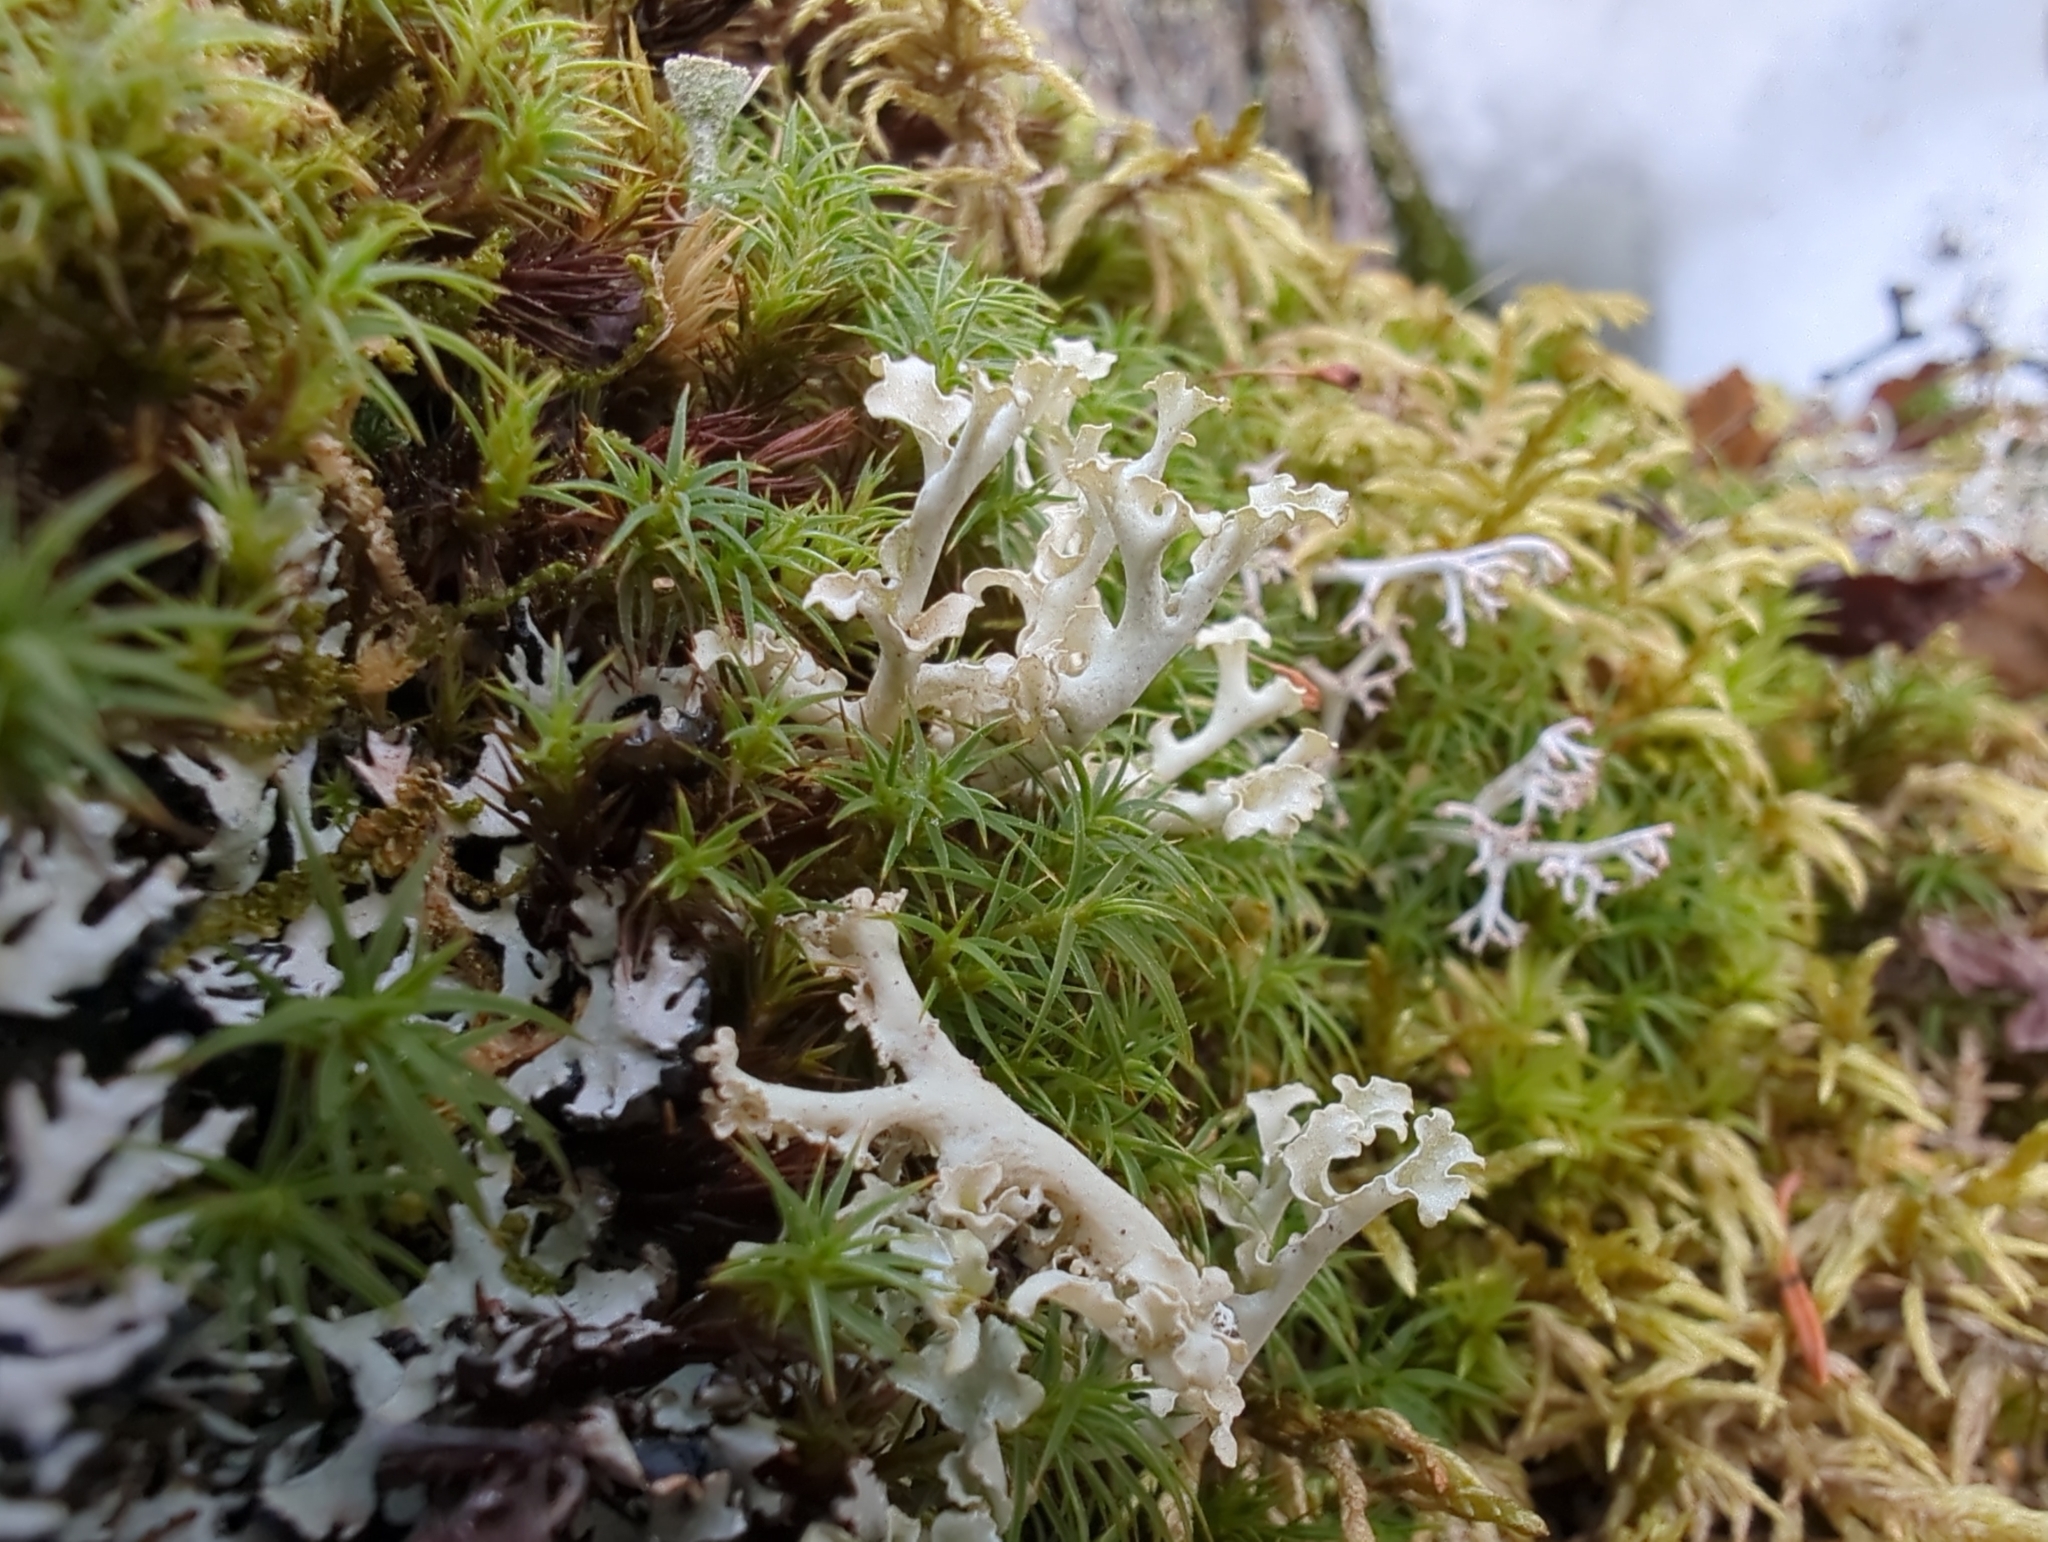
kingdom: Fungi
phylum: Ascomycota
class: Lecanoromycetes
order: Lecanorales
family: Parmeliaceae
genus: Nephromopsis
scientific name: Nephromopsis cucullata
